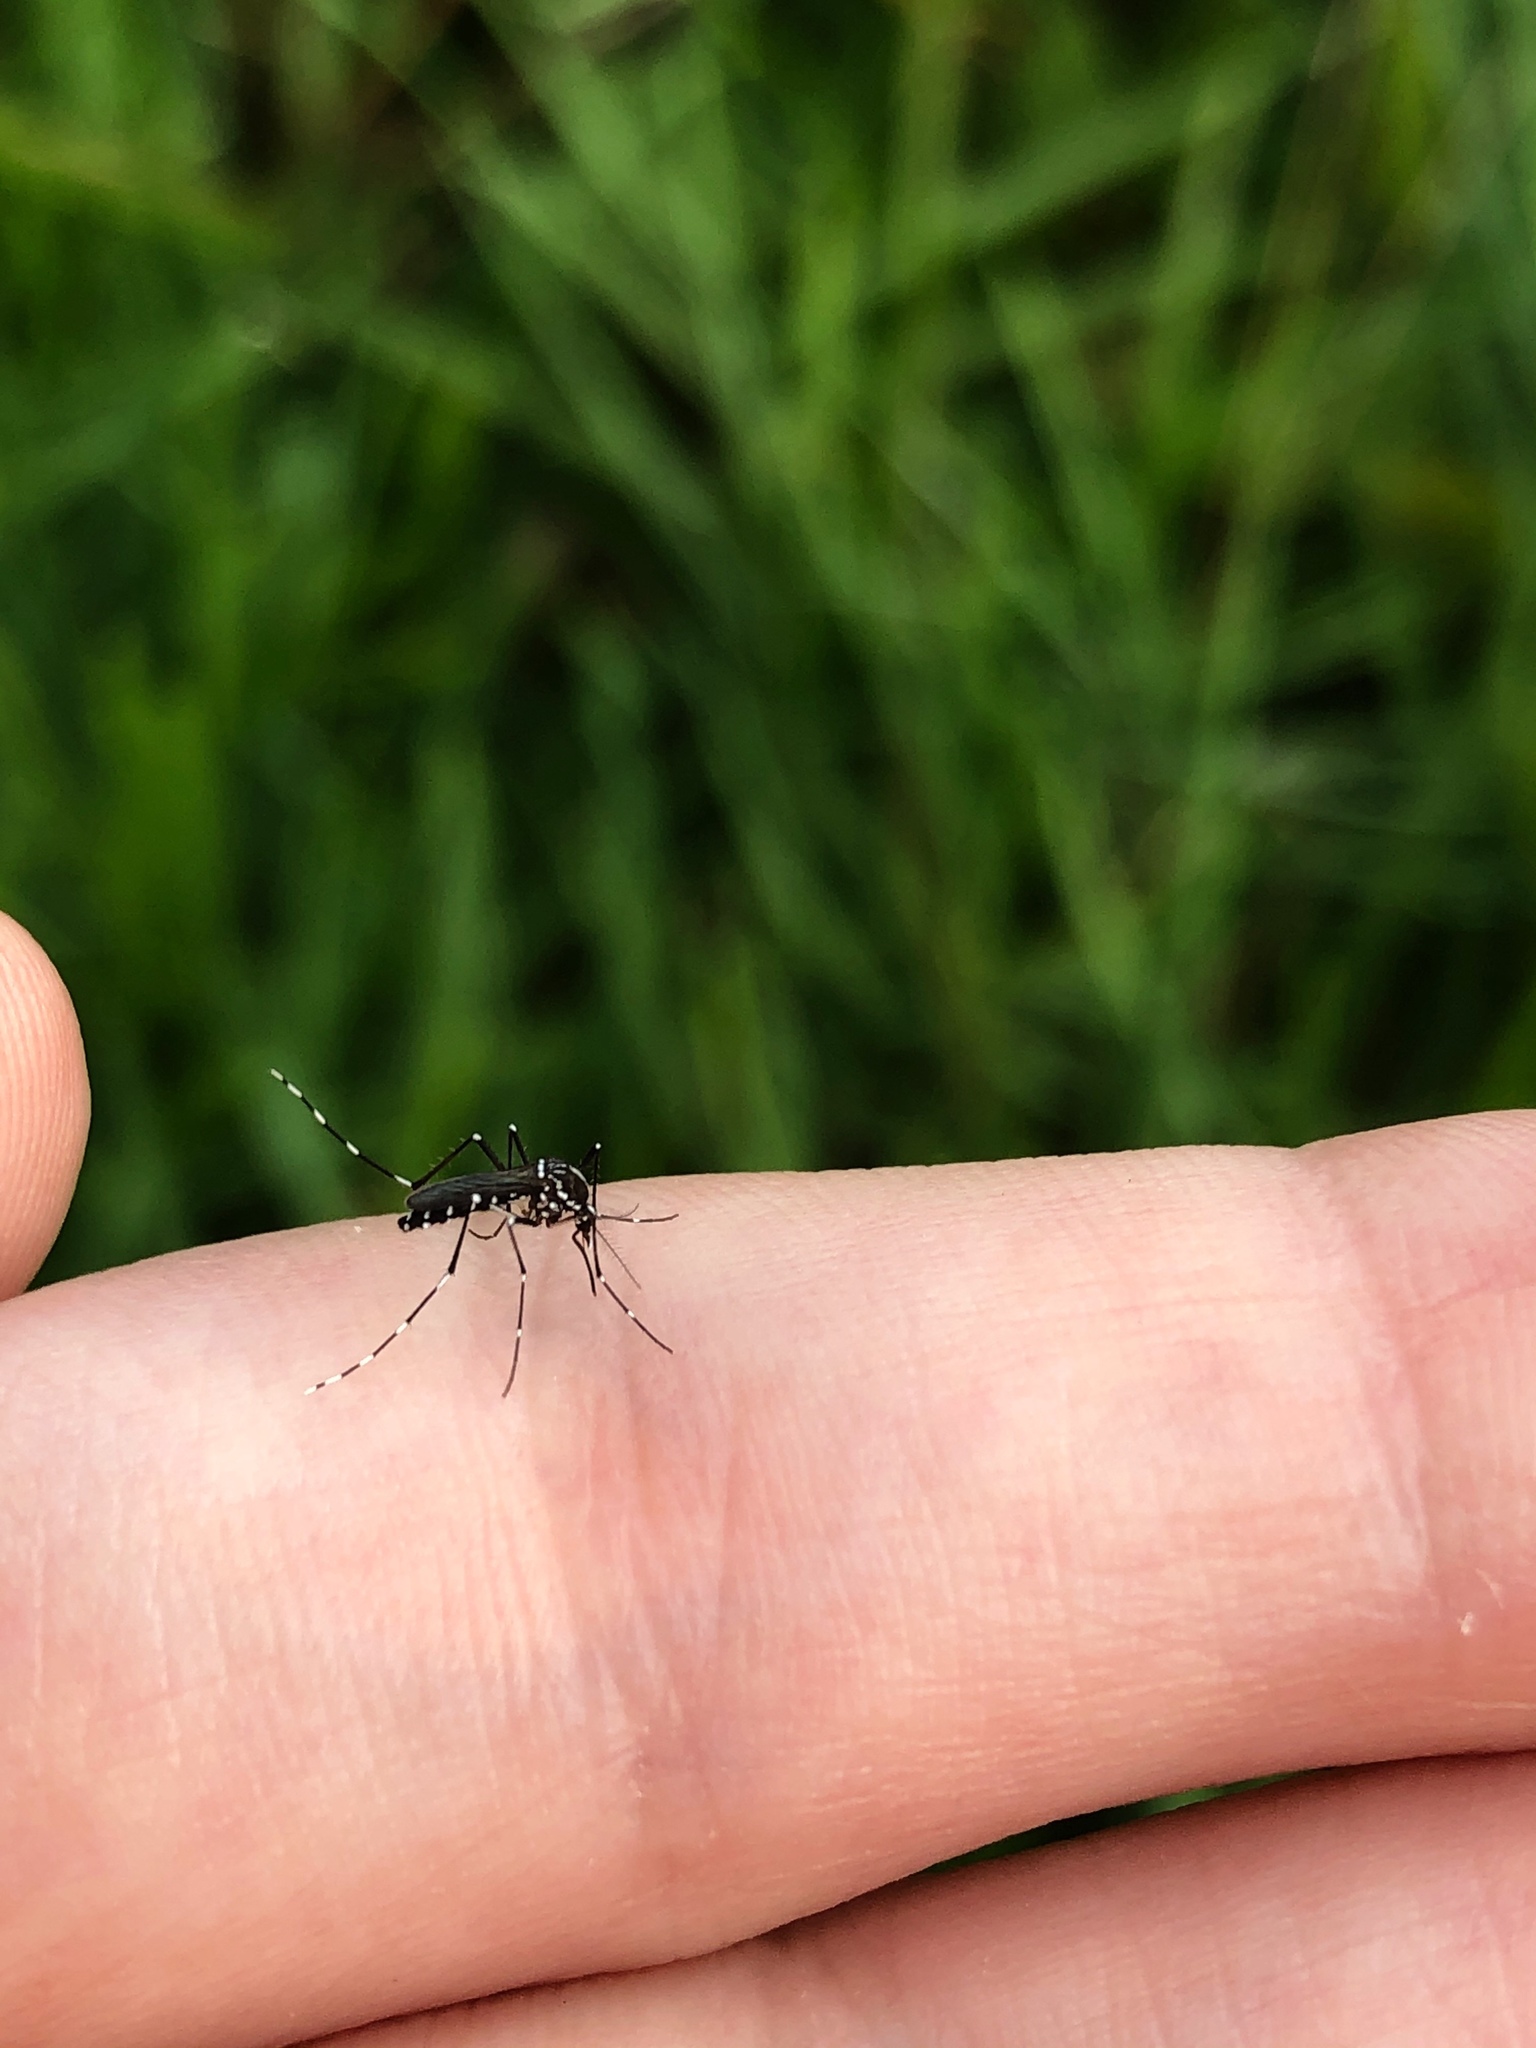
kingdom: Animalia
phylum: Arthropoda
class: Insecta
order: Diptera
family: Culicidae
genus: Aedes
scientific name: Aedes albopictus
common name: Tiger mosquito
